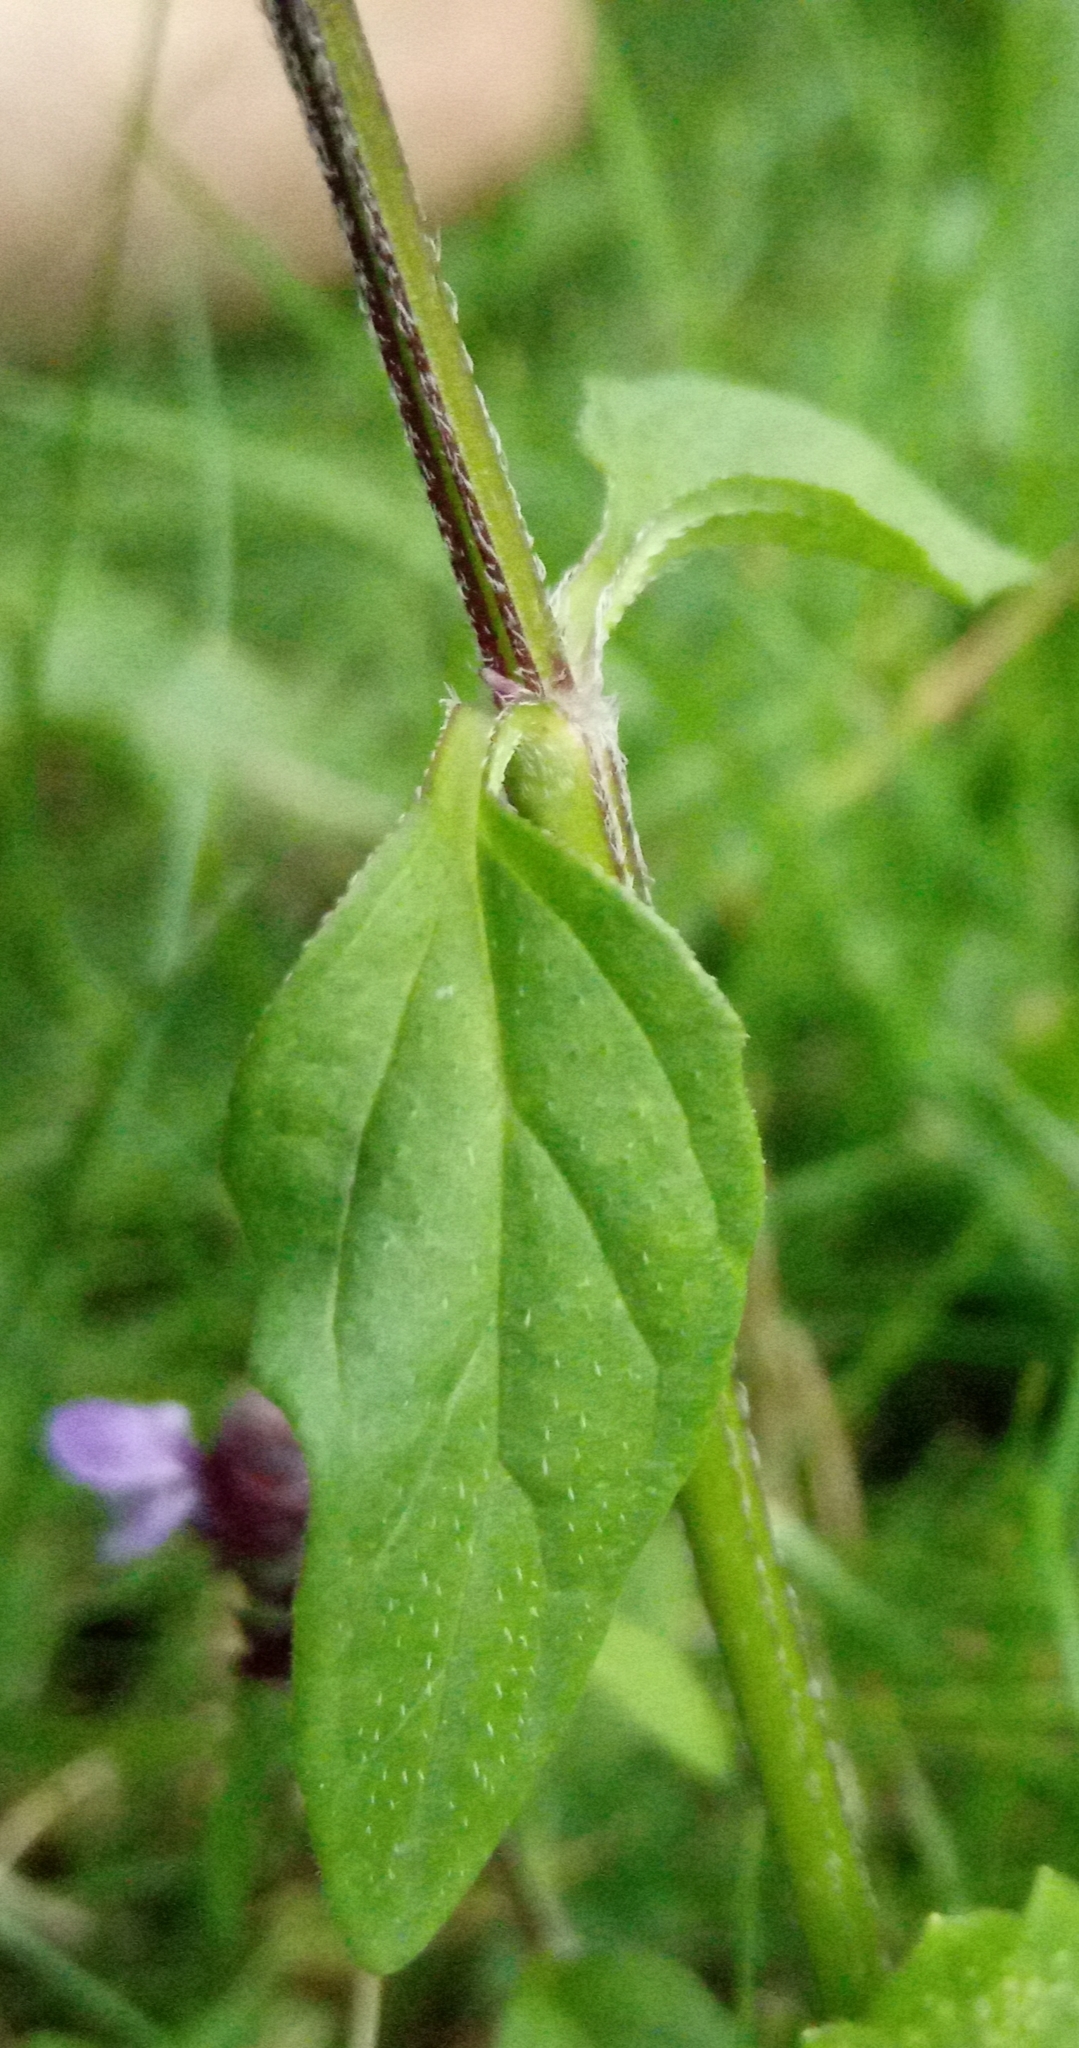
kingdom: Plantae
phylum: Tracheophyta
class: Magnoliopsida
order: Lamiales
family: Lamiaceae
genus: Prunella
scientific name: Prunella vulgaris
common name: Heal-all
